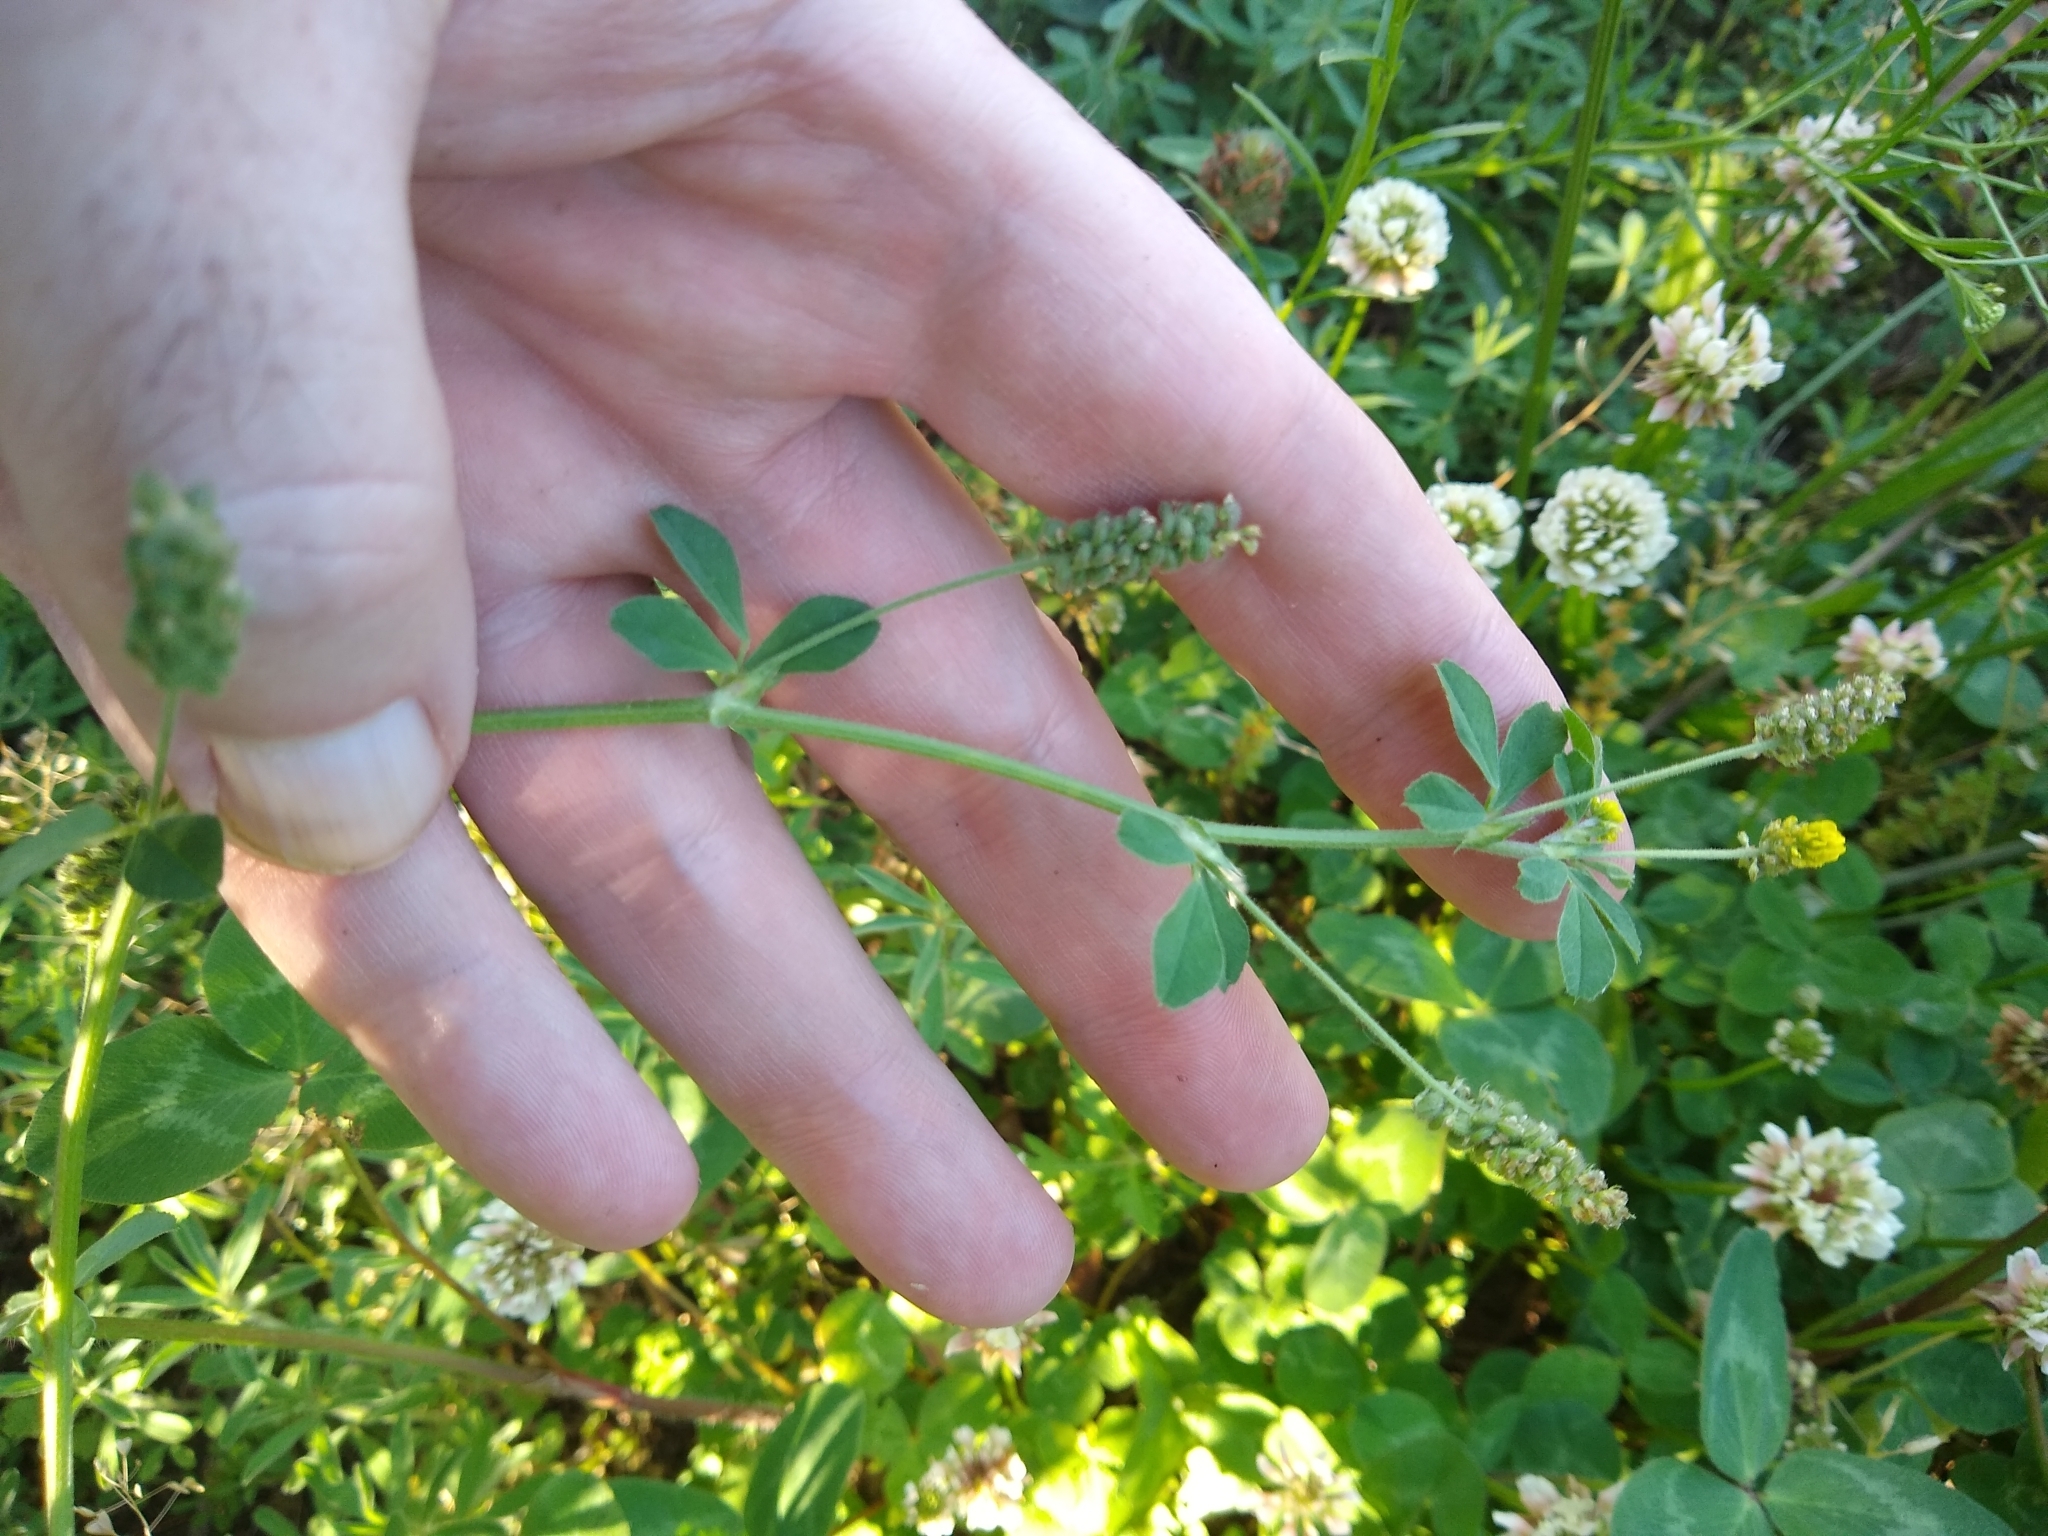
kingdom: Plantae
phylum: Tracheophyta
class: Magnoliopsida
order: Fabales
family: Fabaceae
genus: Medicago
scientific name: Medicago lupulina
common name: Black medick
